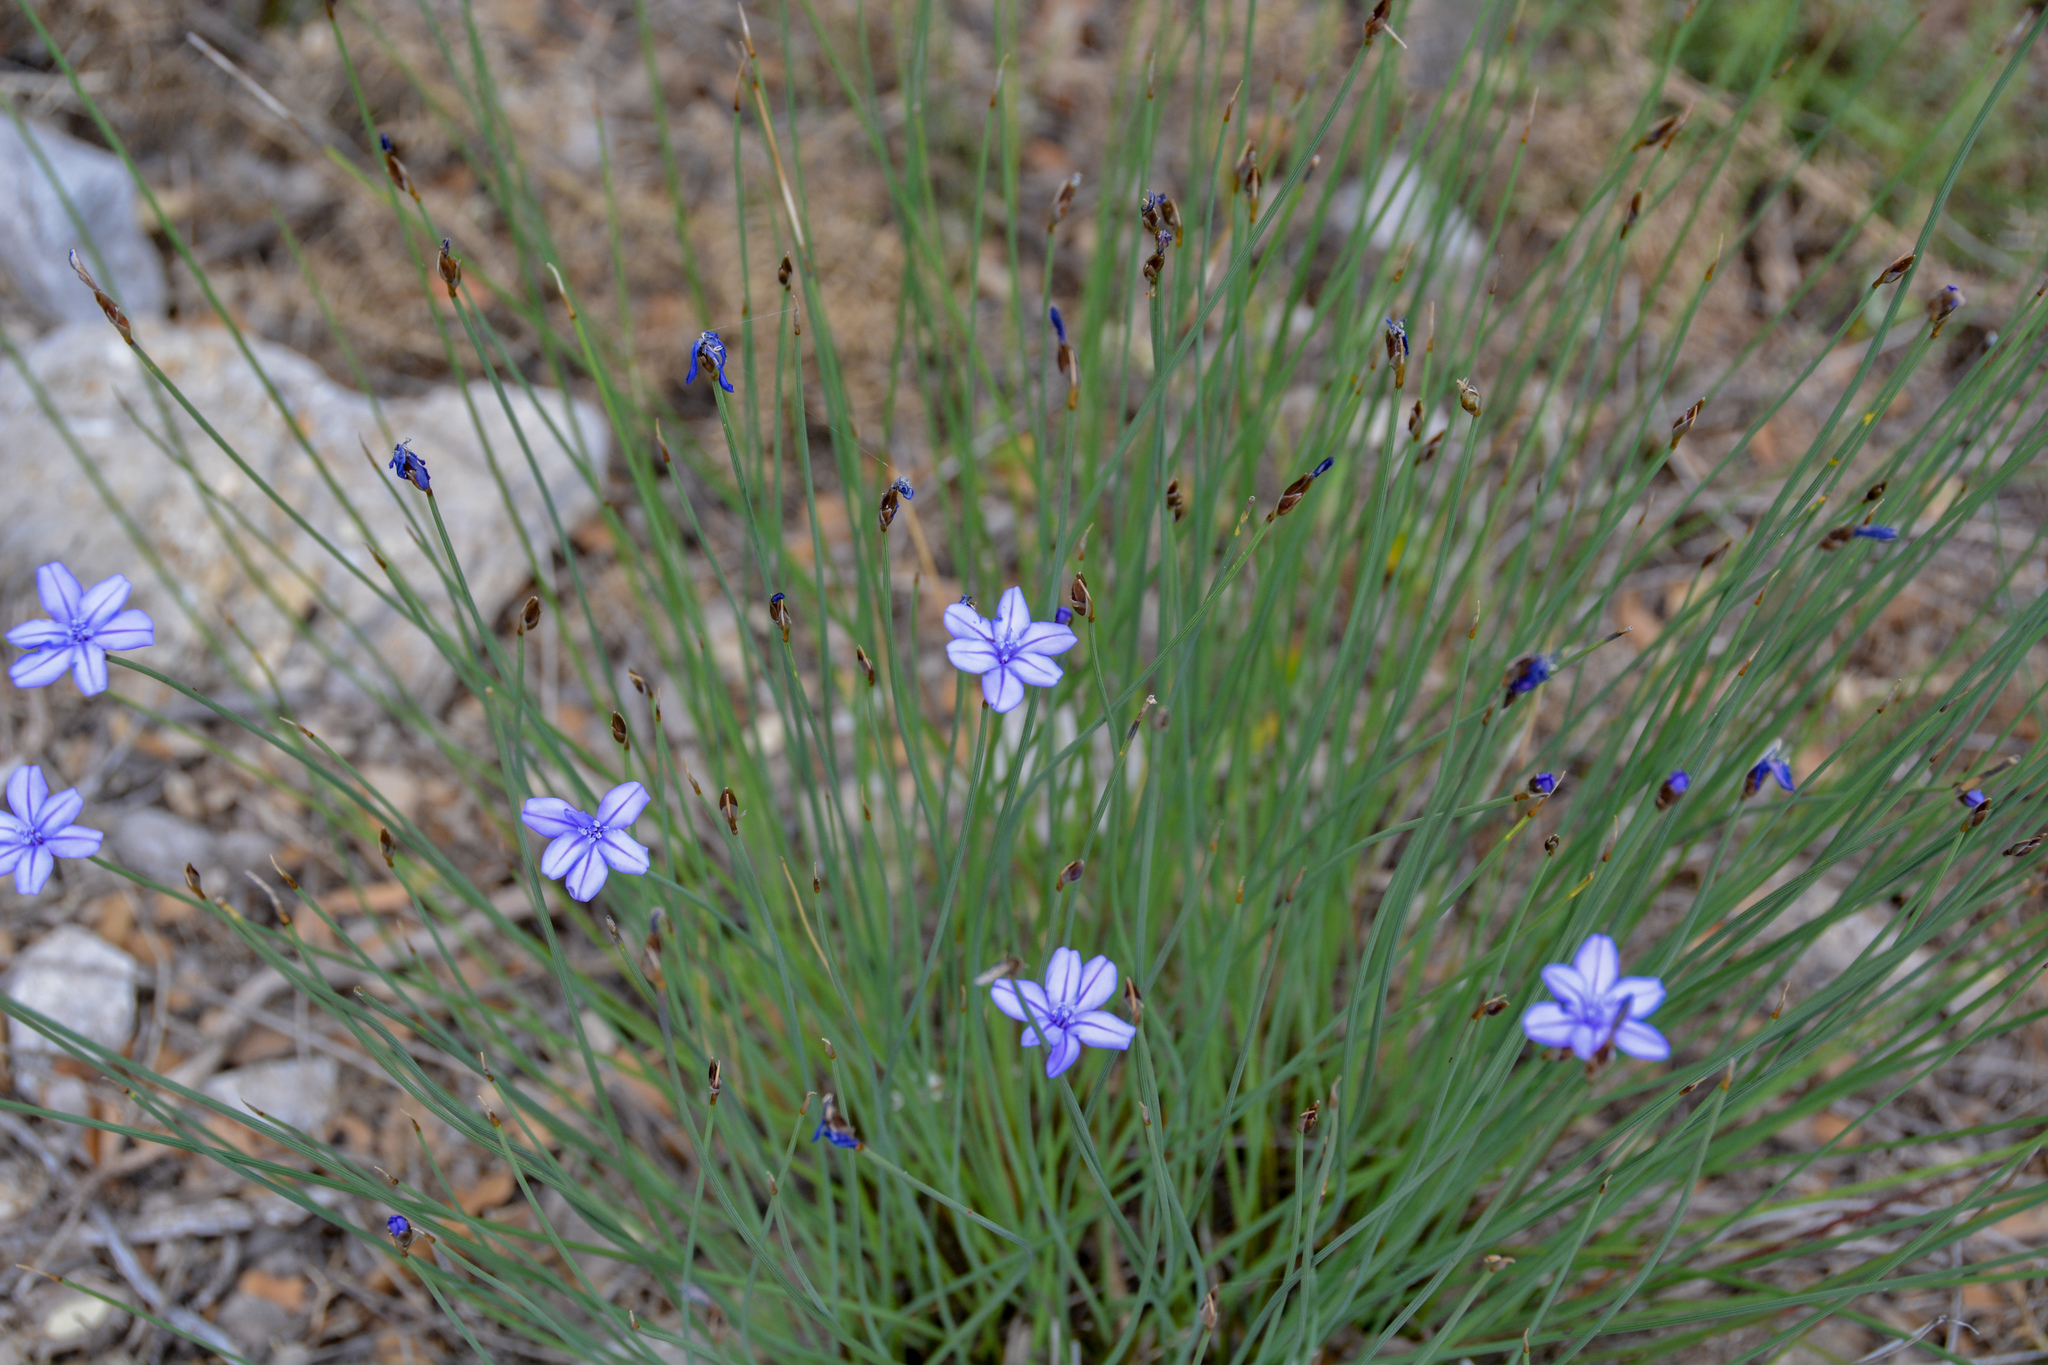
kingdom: Plantae
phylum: Tracheophyta
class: Liliopsida
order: Asparagales
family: Asparagaceae
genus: Aphyllanthes
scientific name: Aphyllanthes monspeliensis
